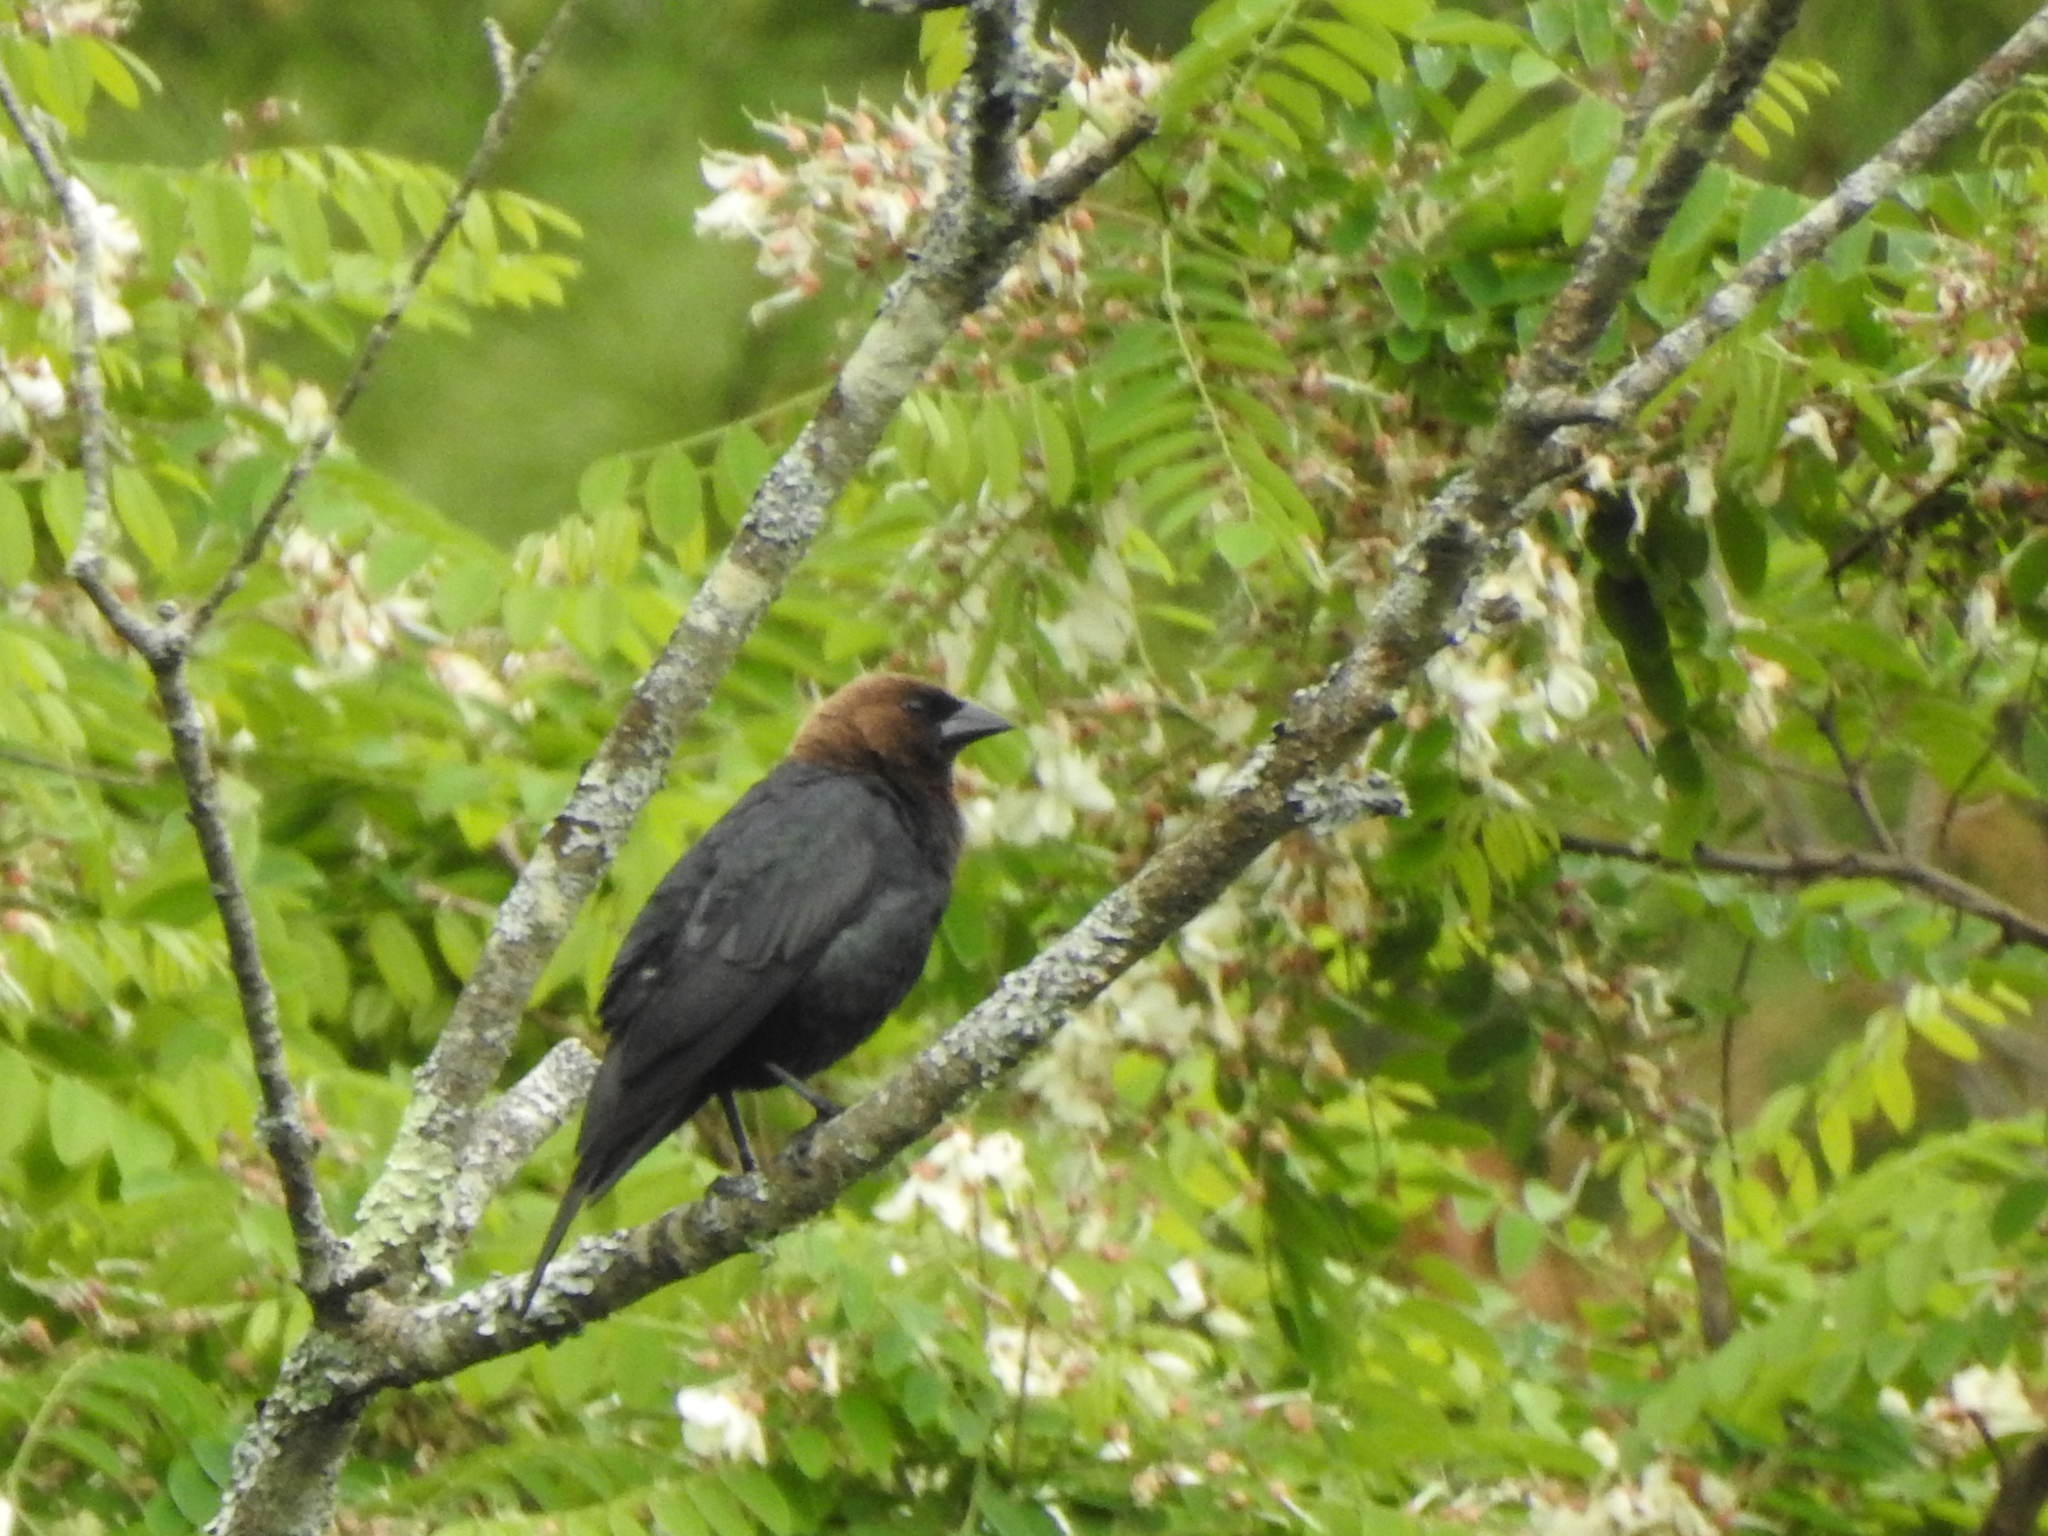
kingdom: Animalia
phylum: Chordata
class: Aves
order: Passeriformes
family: Icteridae
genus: Molothrus
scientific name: Molothrus ater
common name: Brown-headed cowbird
